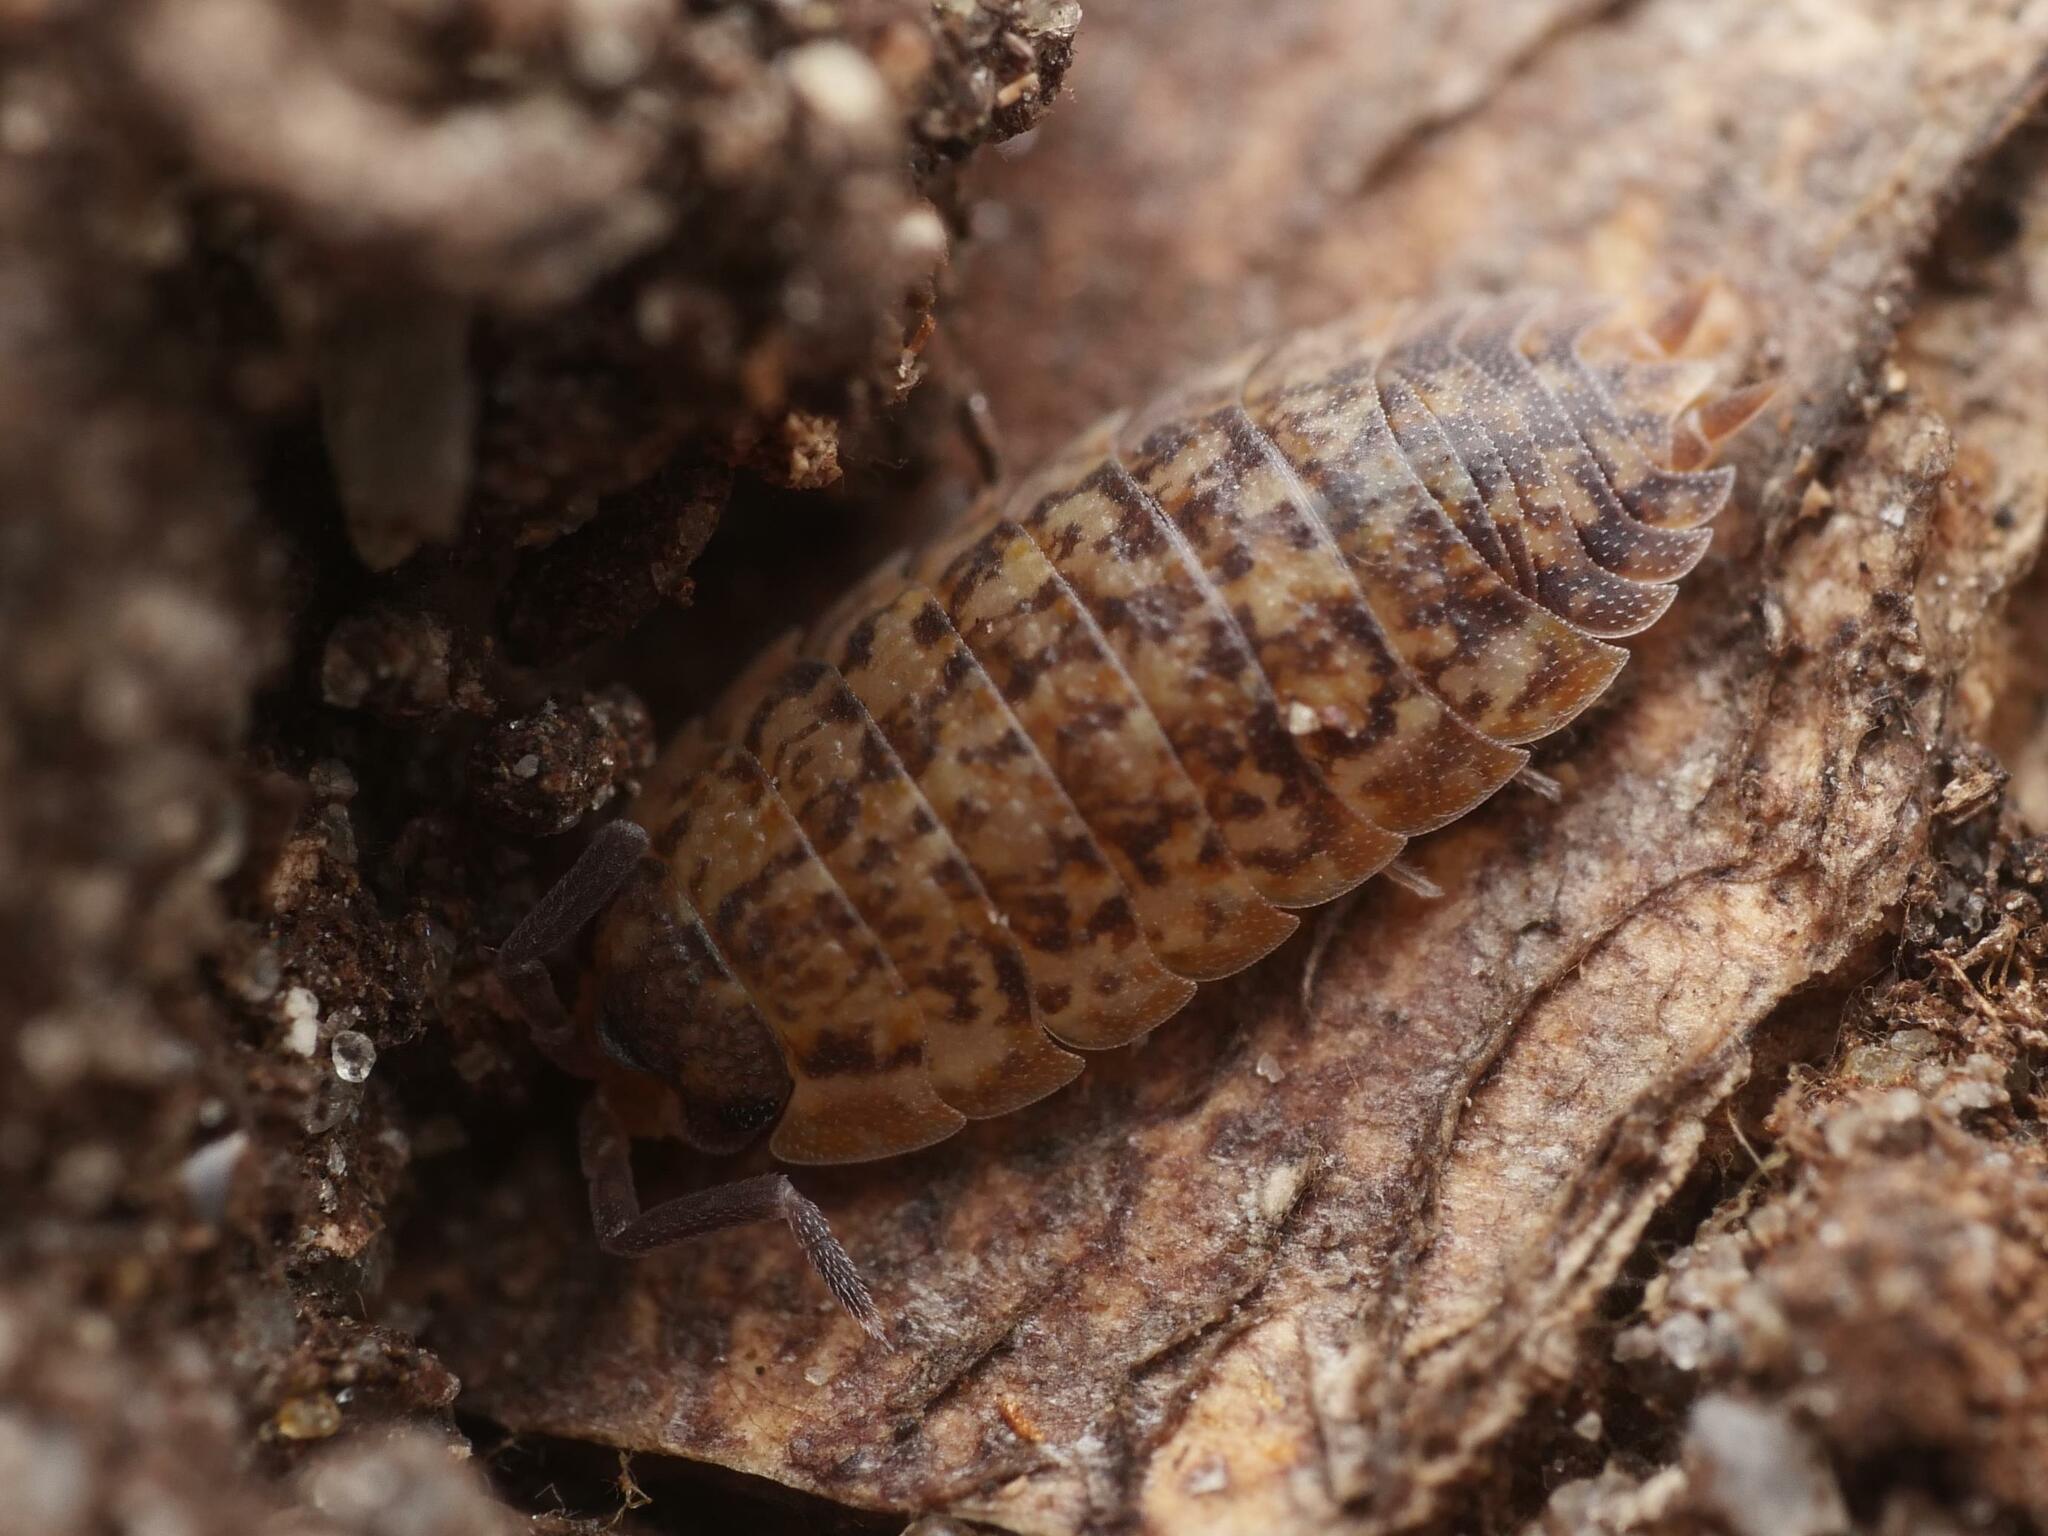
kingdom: Animalia
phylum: Arthropoda
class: Malacostraca
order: Isopoda
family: Trachelipodidae
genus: Trachelipus
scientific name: Trachelipus rathkii
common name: Isopod
